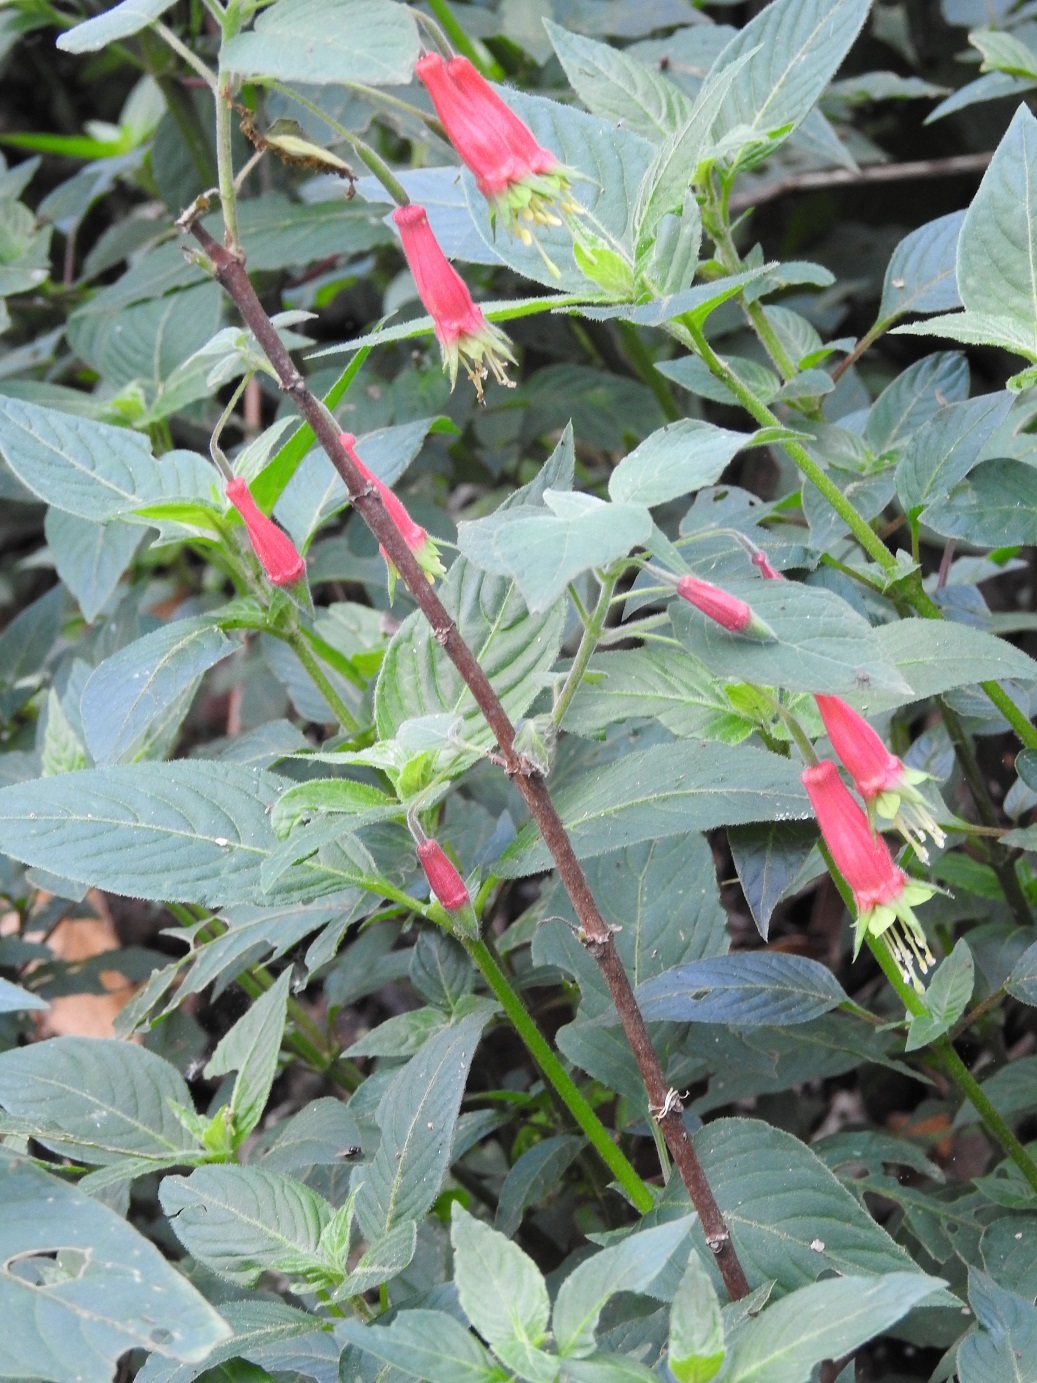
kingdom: Plantae
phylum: Tracheophyta
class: Magnoliopsida
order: Myrtales
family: Onagraceae
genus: Fuchsia
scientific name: Fuchsia splendens
